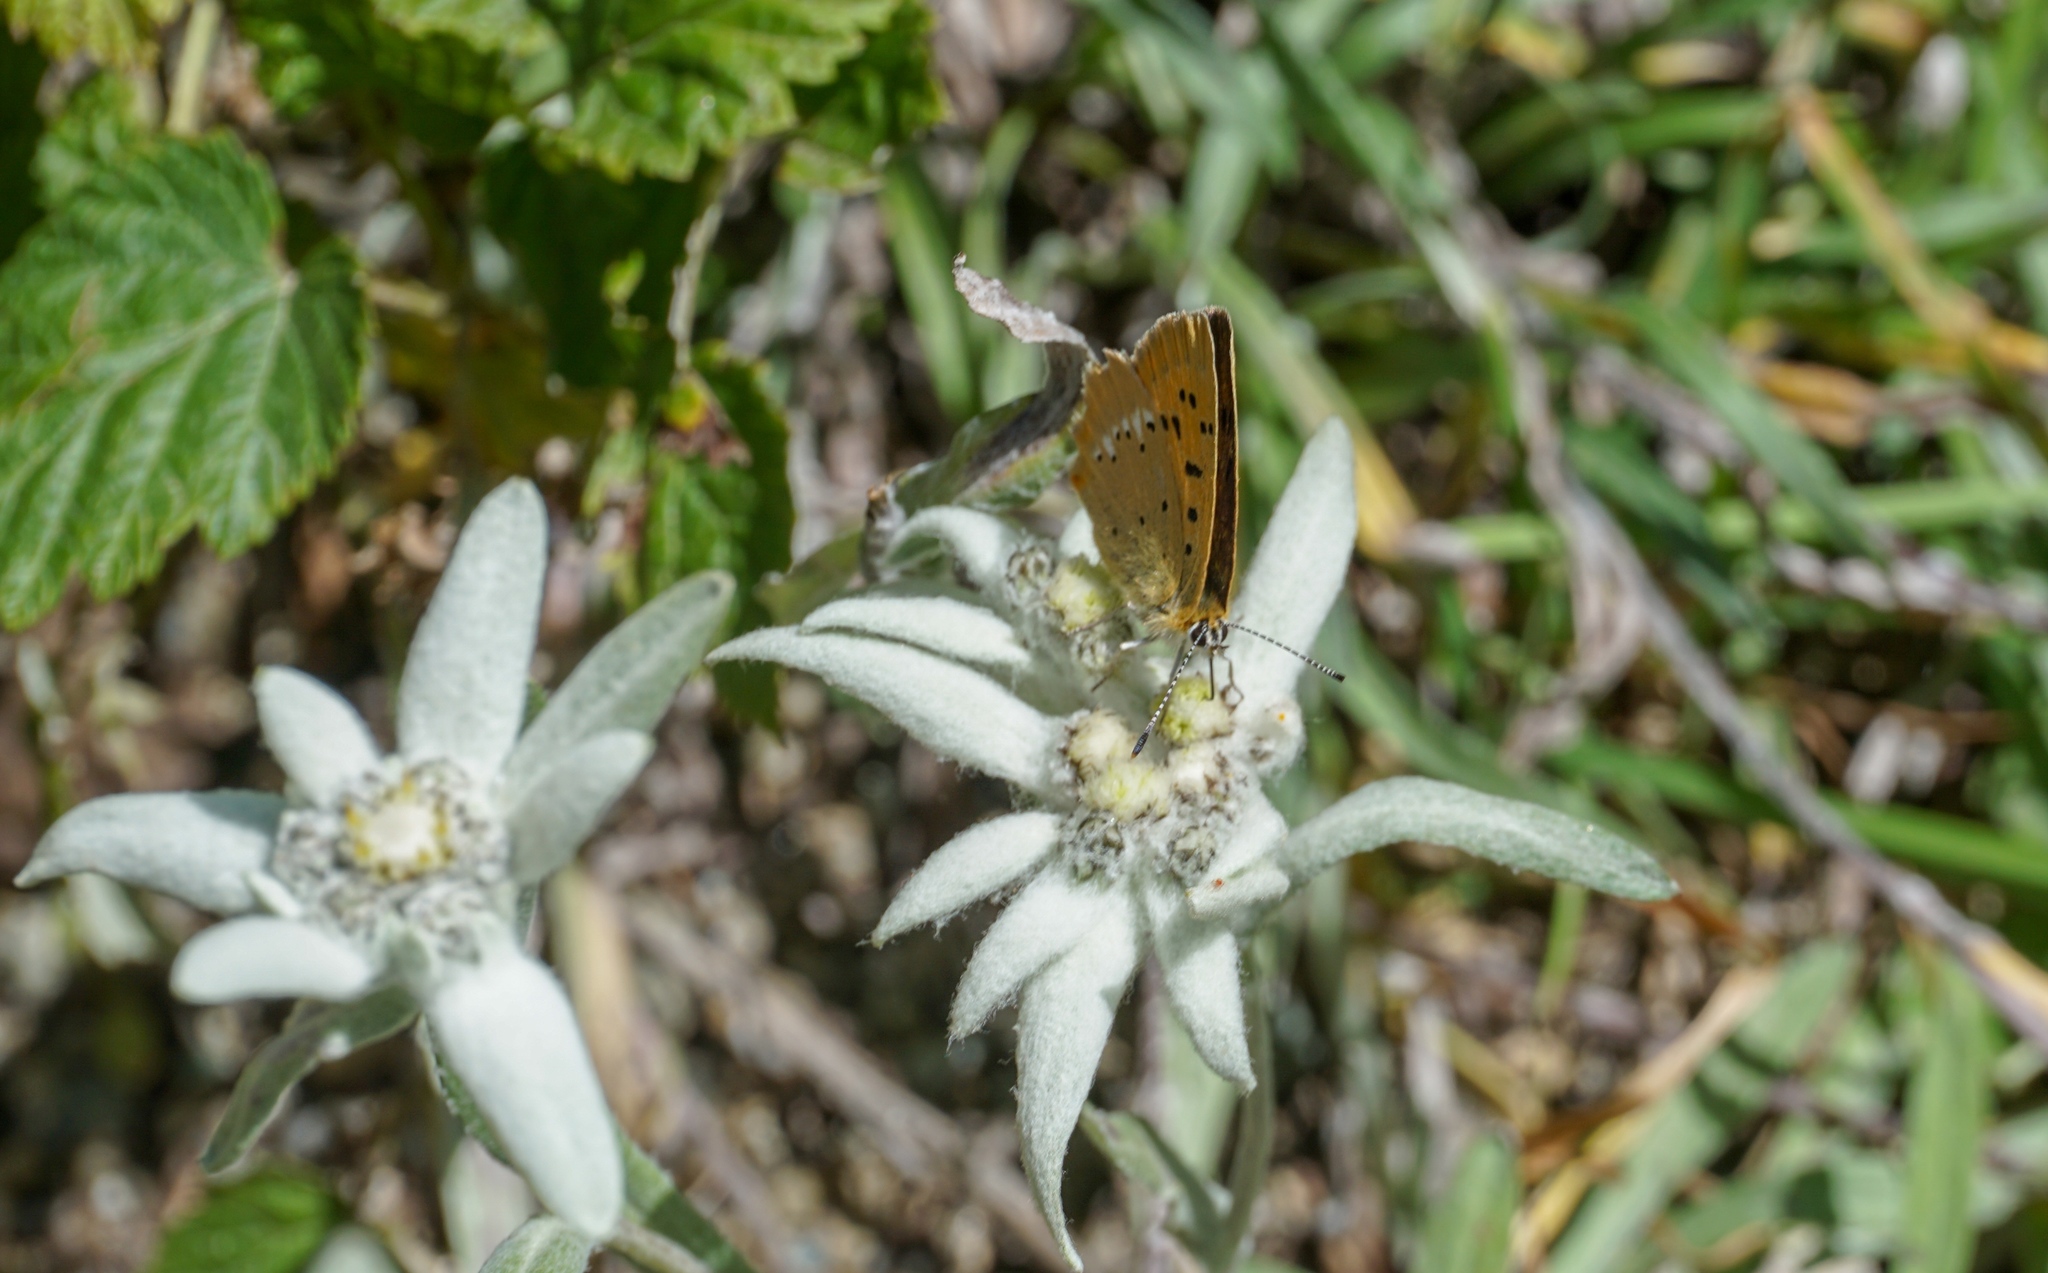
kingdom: Animalia
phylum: Arthropoda
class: Insecta
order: Lepidoptera
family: Lycaenidae
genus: Lycaena
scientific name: Lycaena virgaureae
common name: Scarce copper
